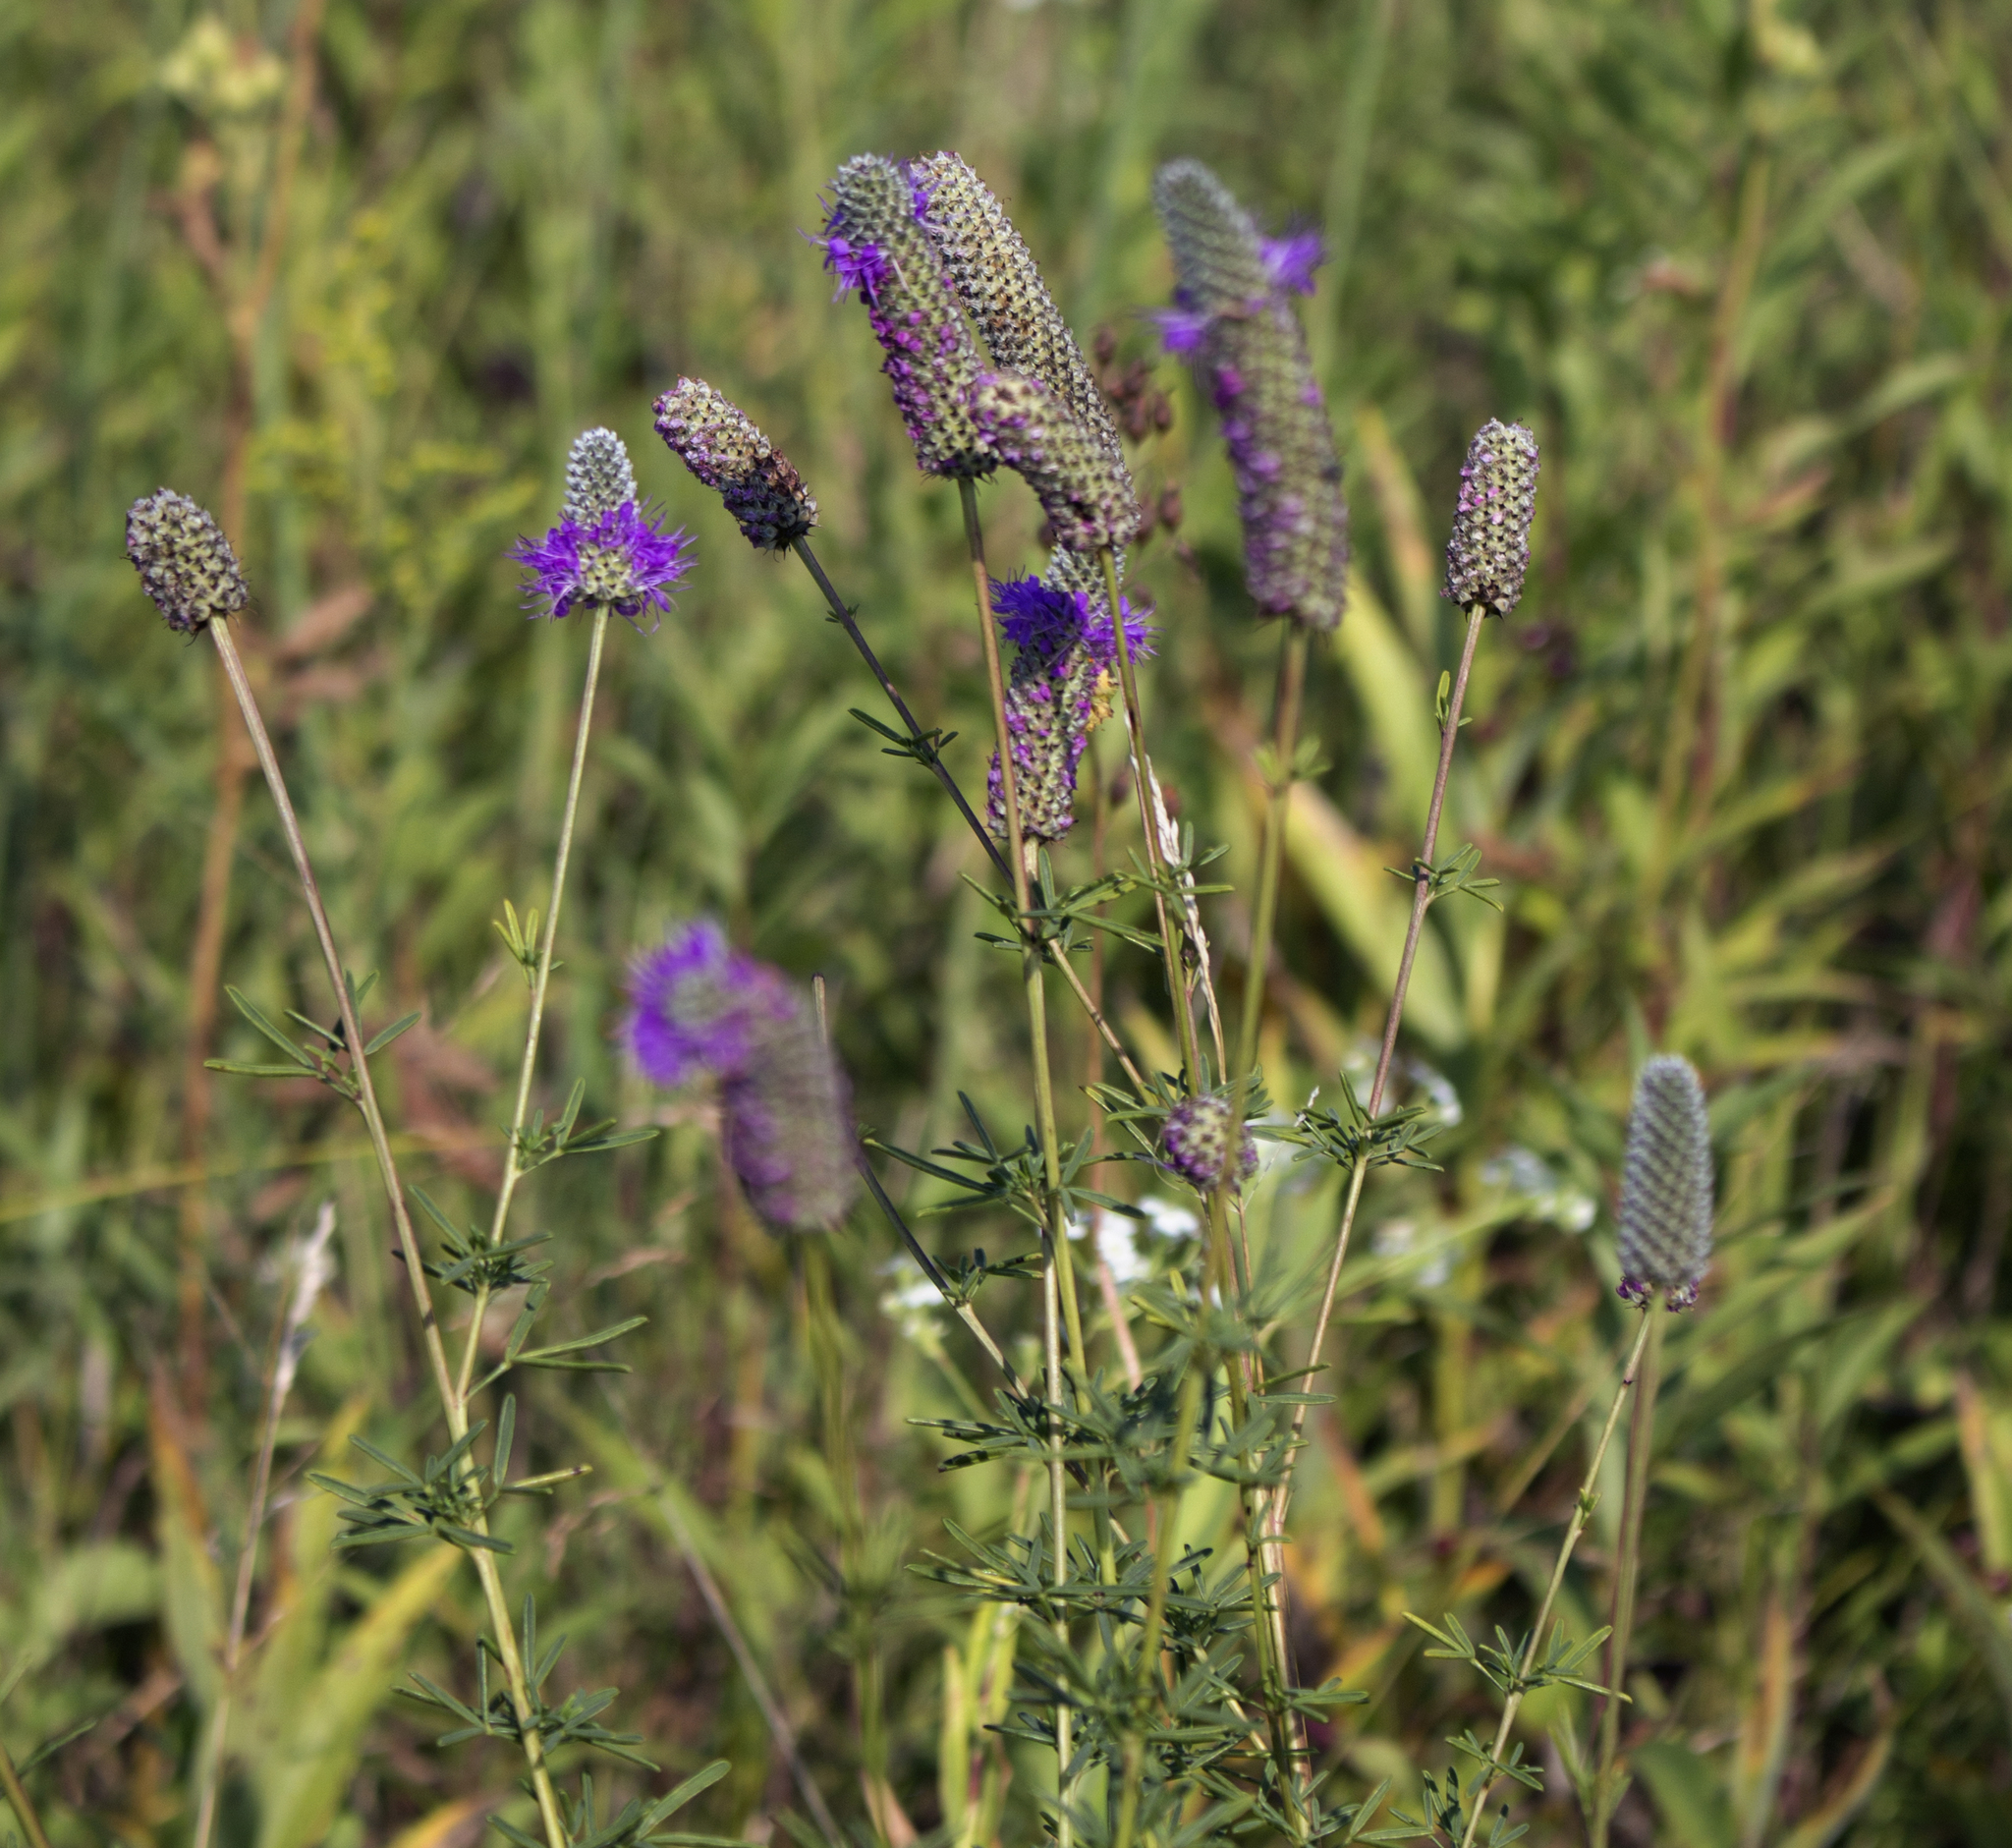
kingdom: Plantae
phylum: Tracheophyta
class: Magnoliopsida
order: Fabales
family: Fabaceae
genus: Dalea
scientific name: Dalea purpurea
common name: Purple prairie-clover
